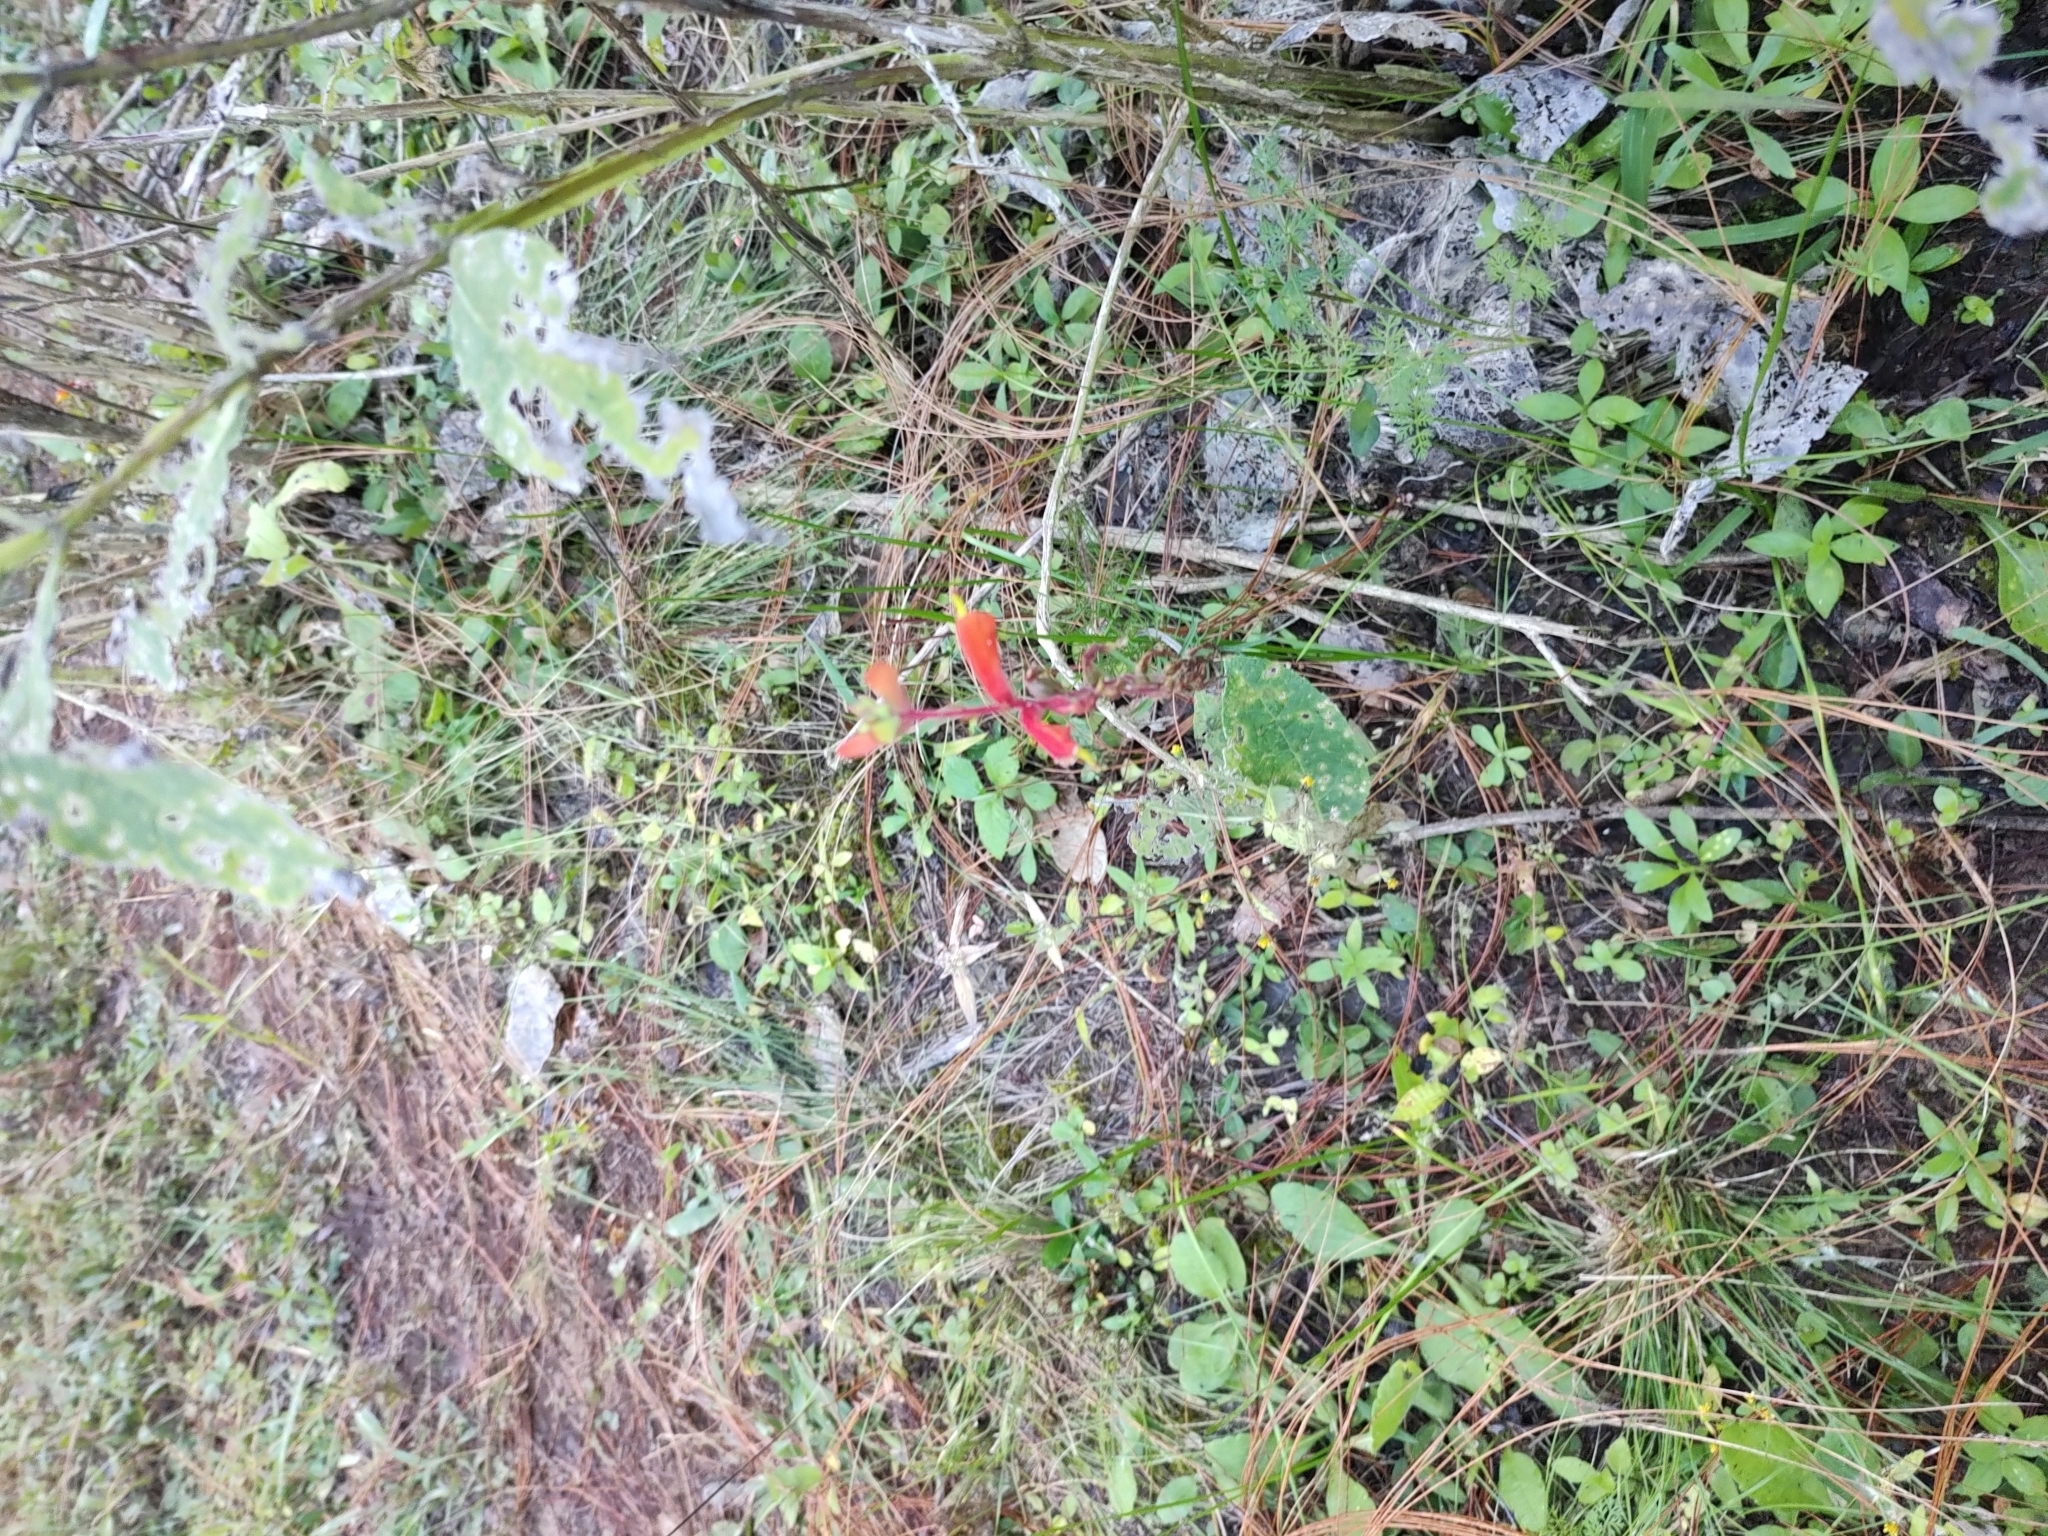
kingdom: Plantae
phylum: Tracheophyta
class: Magnoliopsida
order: Lamiales
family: Orobanchaceae
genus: Castilleja
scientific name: Castilleja tenuifolia
